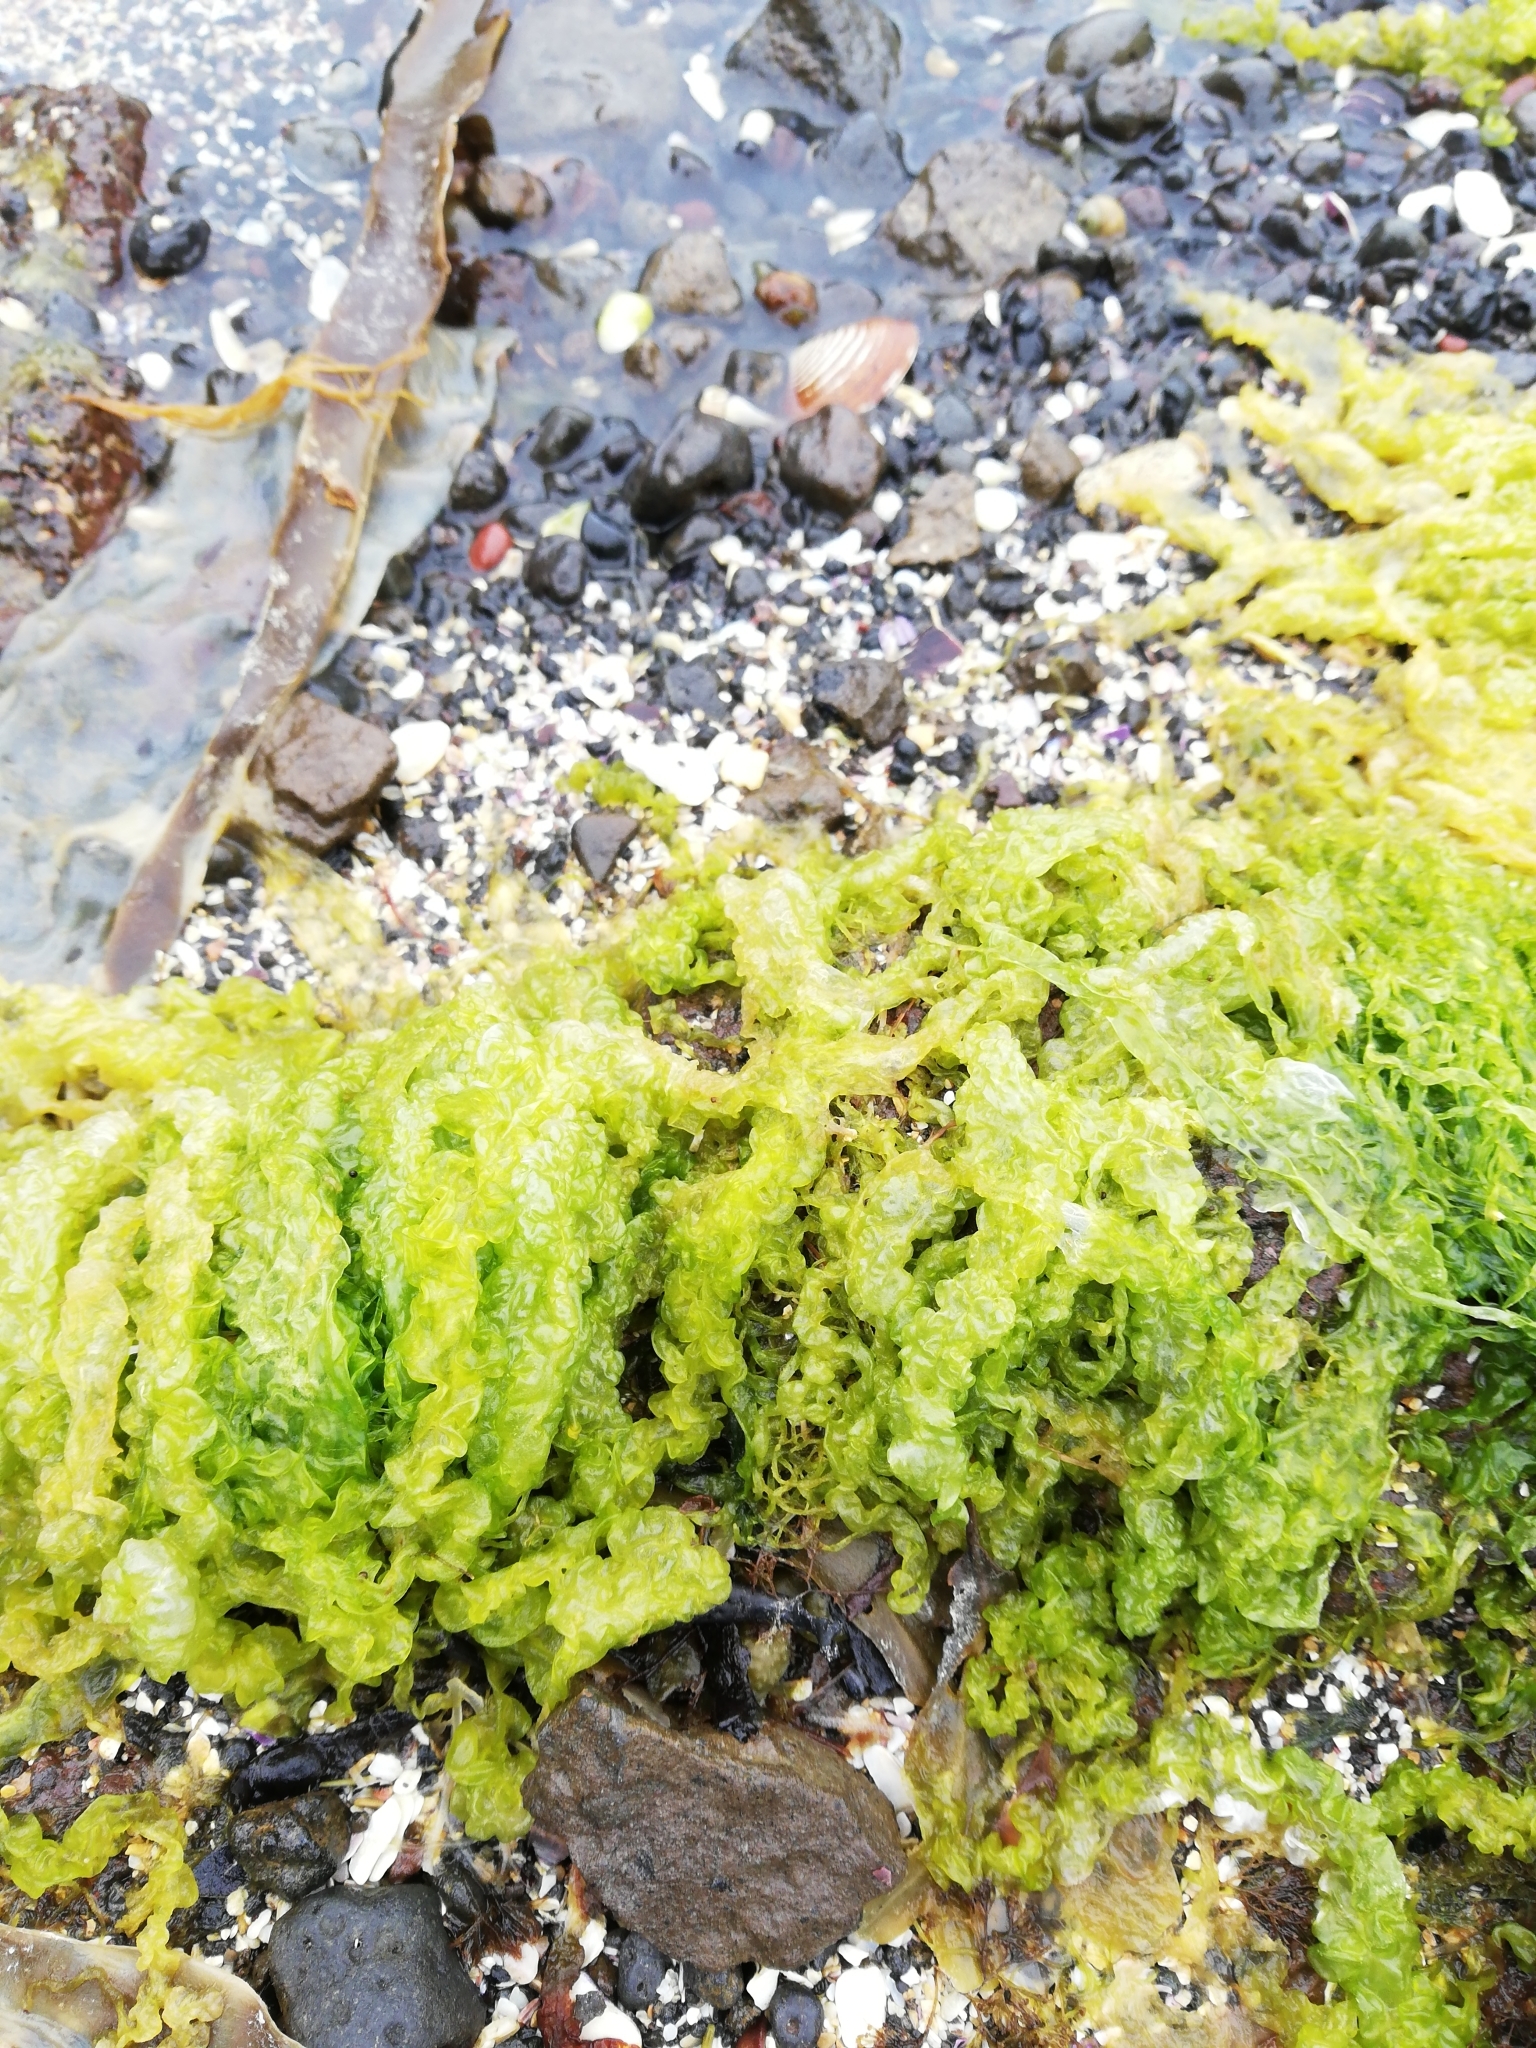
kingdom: Plantae
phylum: Chlorophyta
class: Ulvophyceae
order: Ulvales
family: Ulvaceae
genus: Ulva
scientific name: Ulva intestinalis
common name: Gut weed
